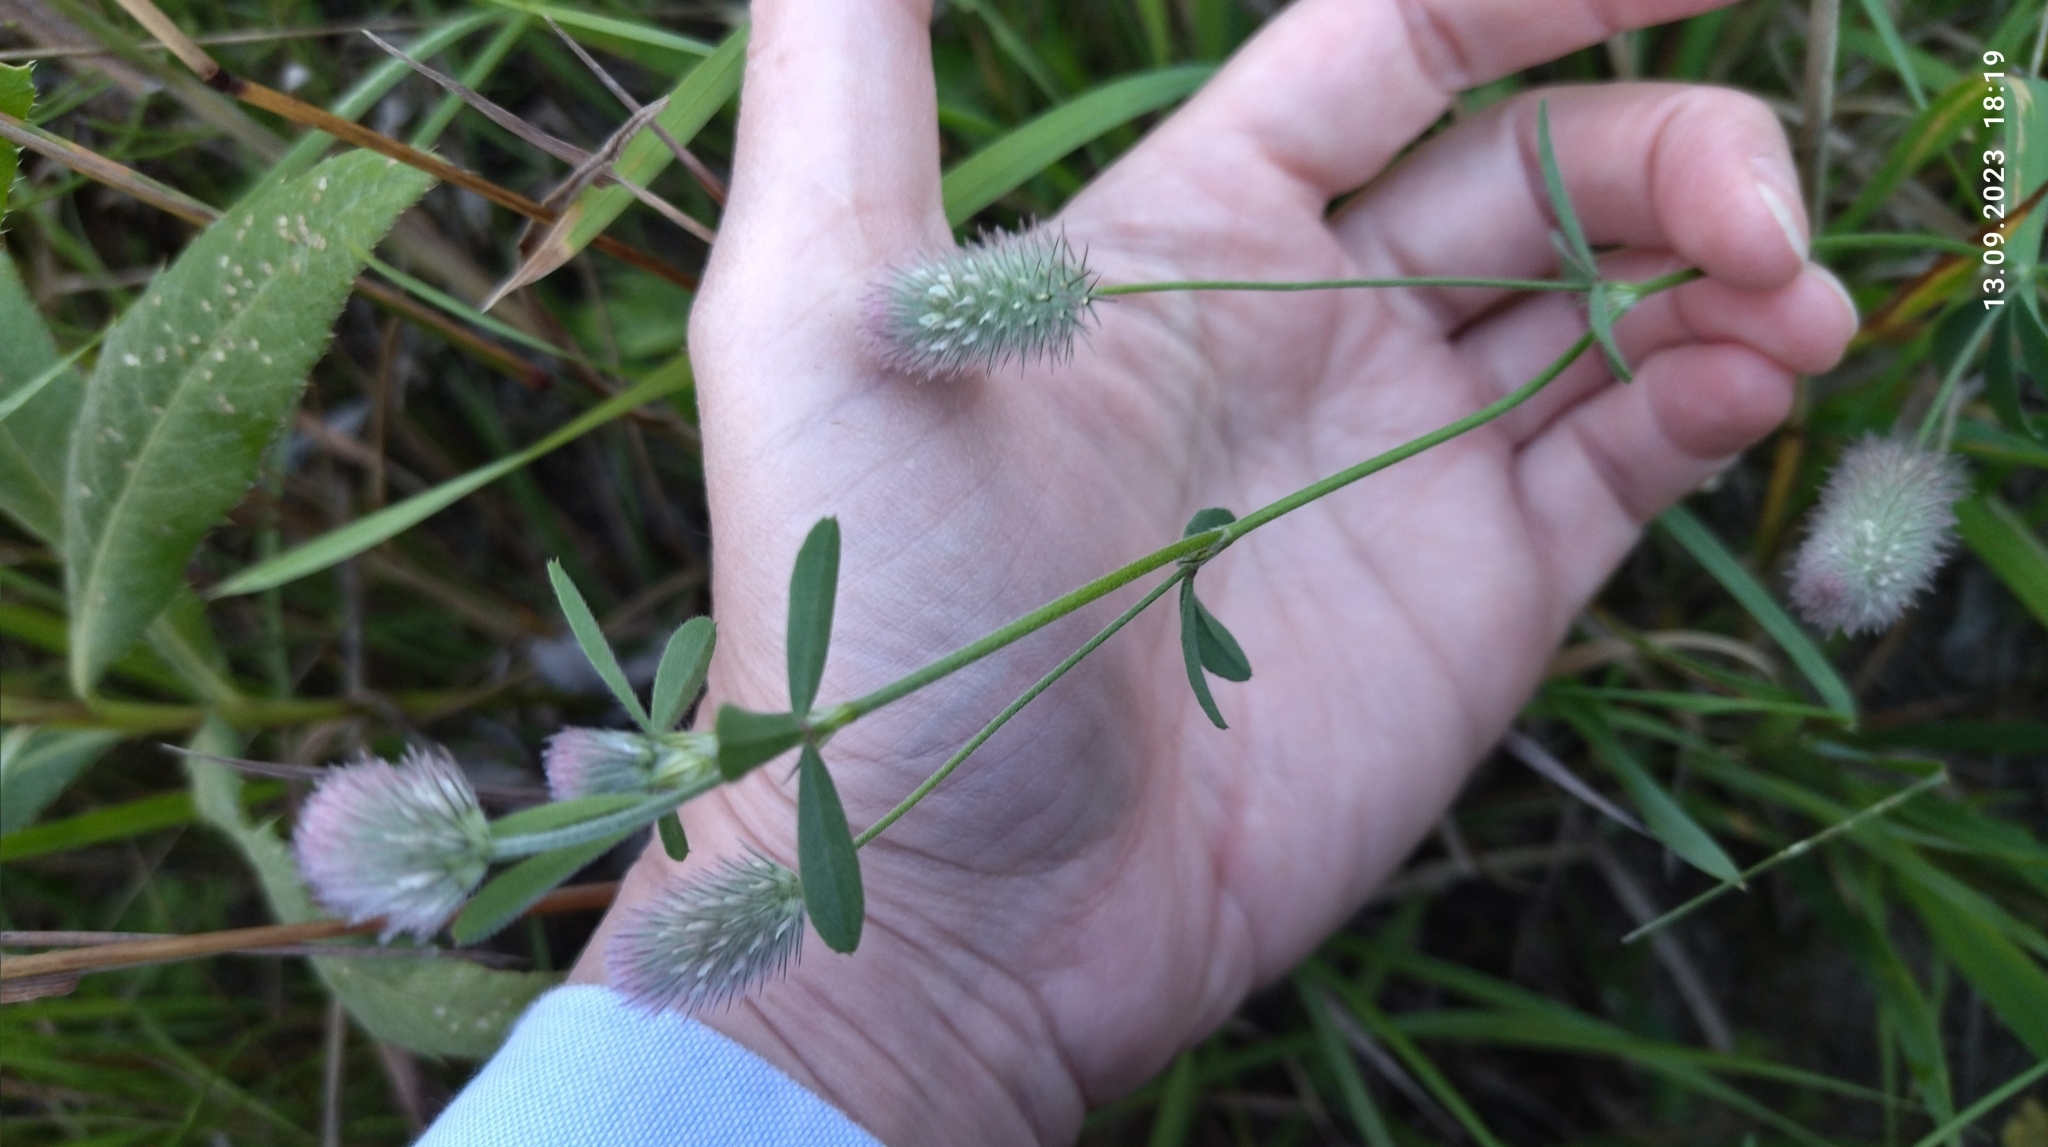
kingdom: Plantae
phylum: Tracheophyta
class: Magnoliopsida
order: Fabales
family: Fabaceae
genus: Trifolium
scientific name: Trifolium arvense
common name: Hare's-foot clover
